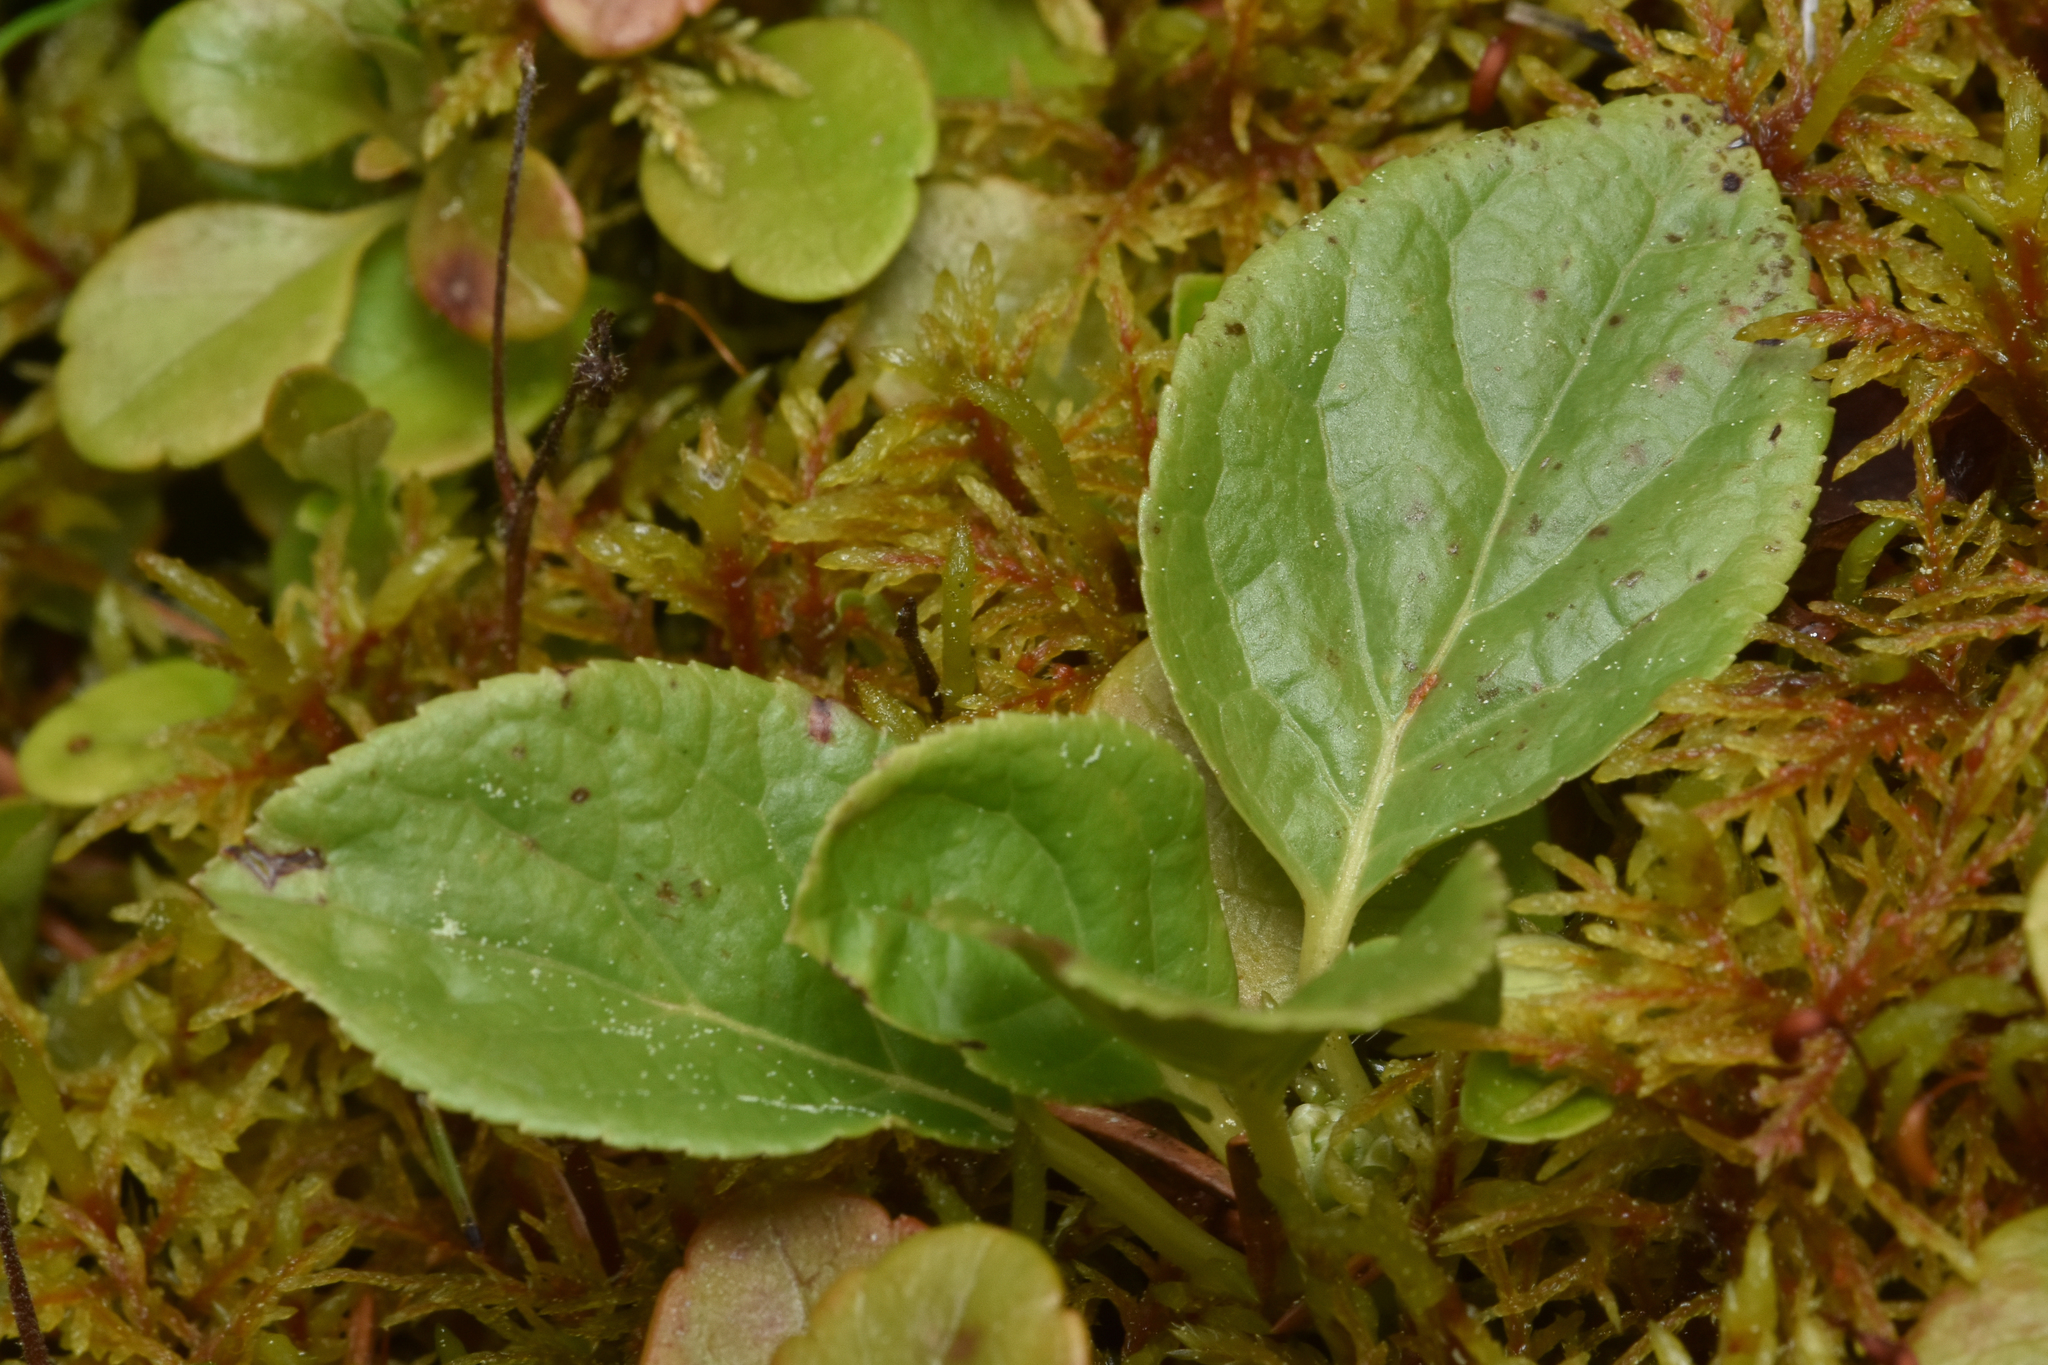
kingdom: Plantae
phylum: Tracheophyta
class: Magnoliopsida
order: Ericales
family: Ericaceae
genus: Orthilia
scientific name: Orthilia secunda
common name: One-sided orthilia
